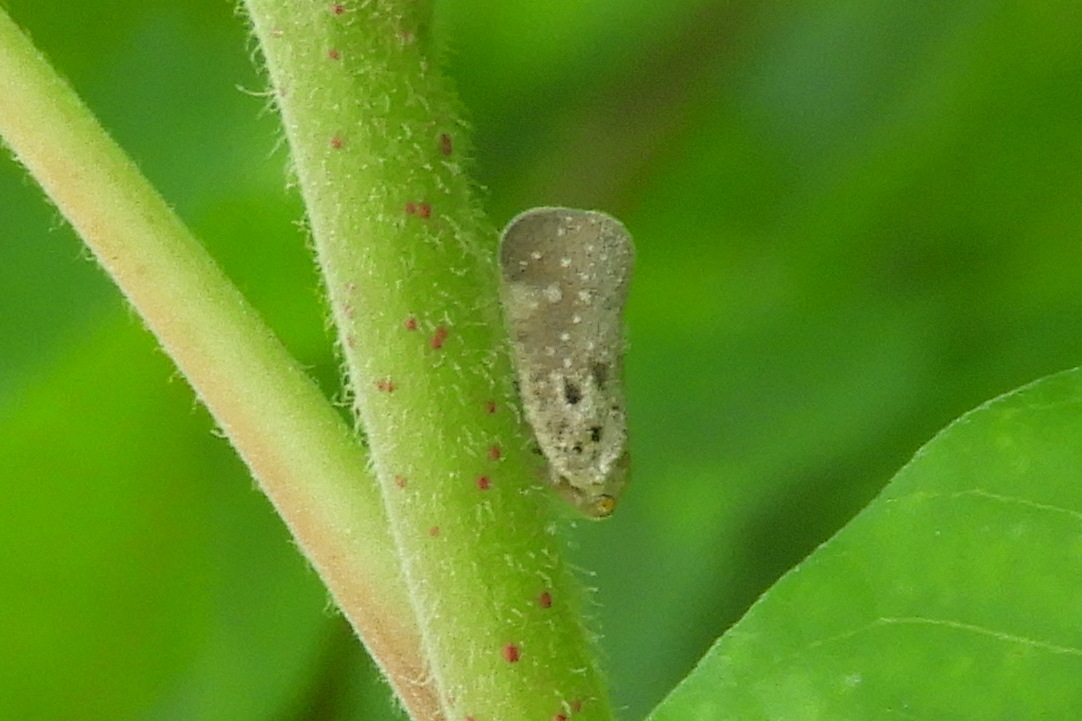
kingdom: Animalia
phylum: Arthropoda
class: Insecta
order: Hemiptera
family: Flatidae
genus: Metcalfa
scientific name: Metcalfa pruinosa
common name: Citrus flatid planthopper
